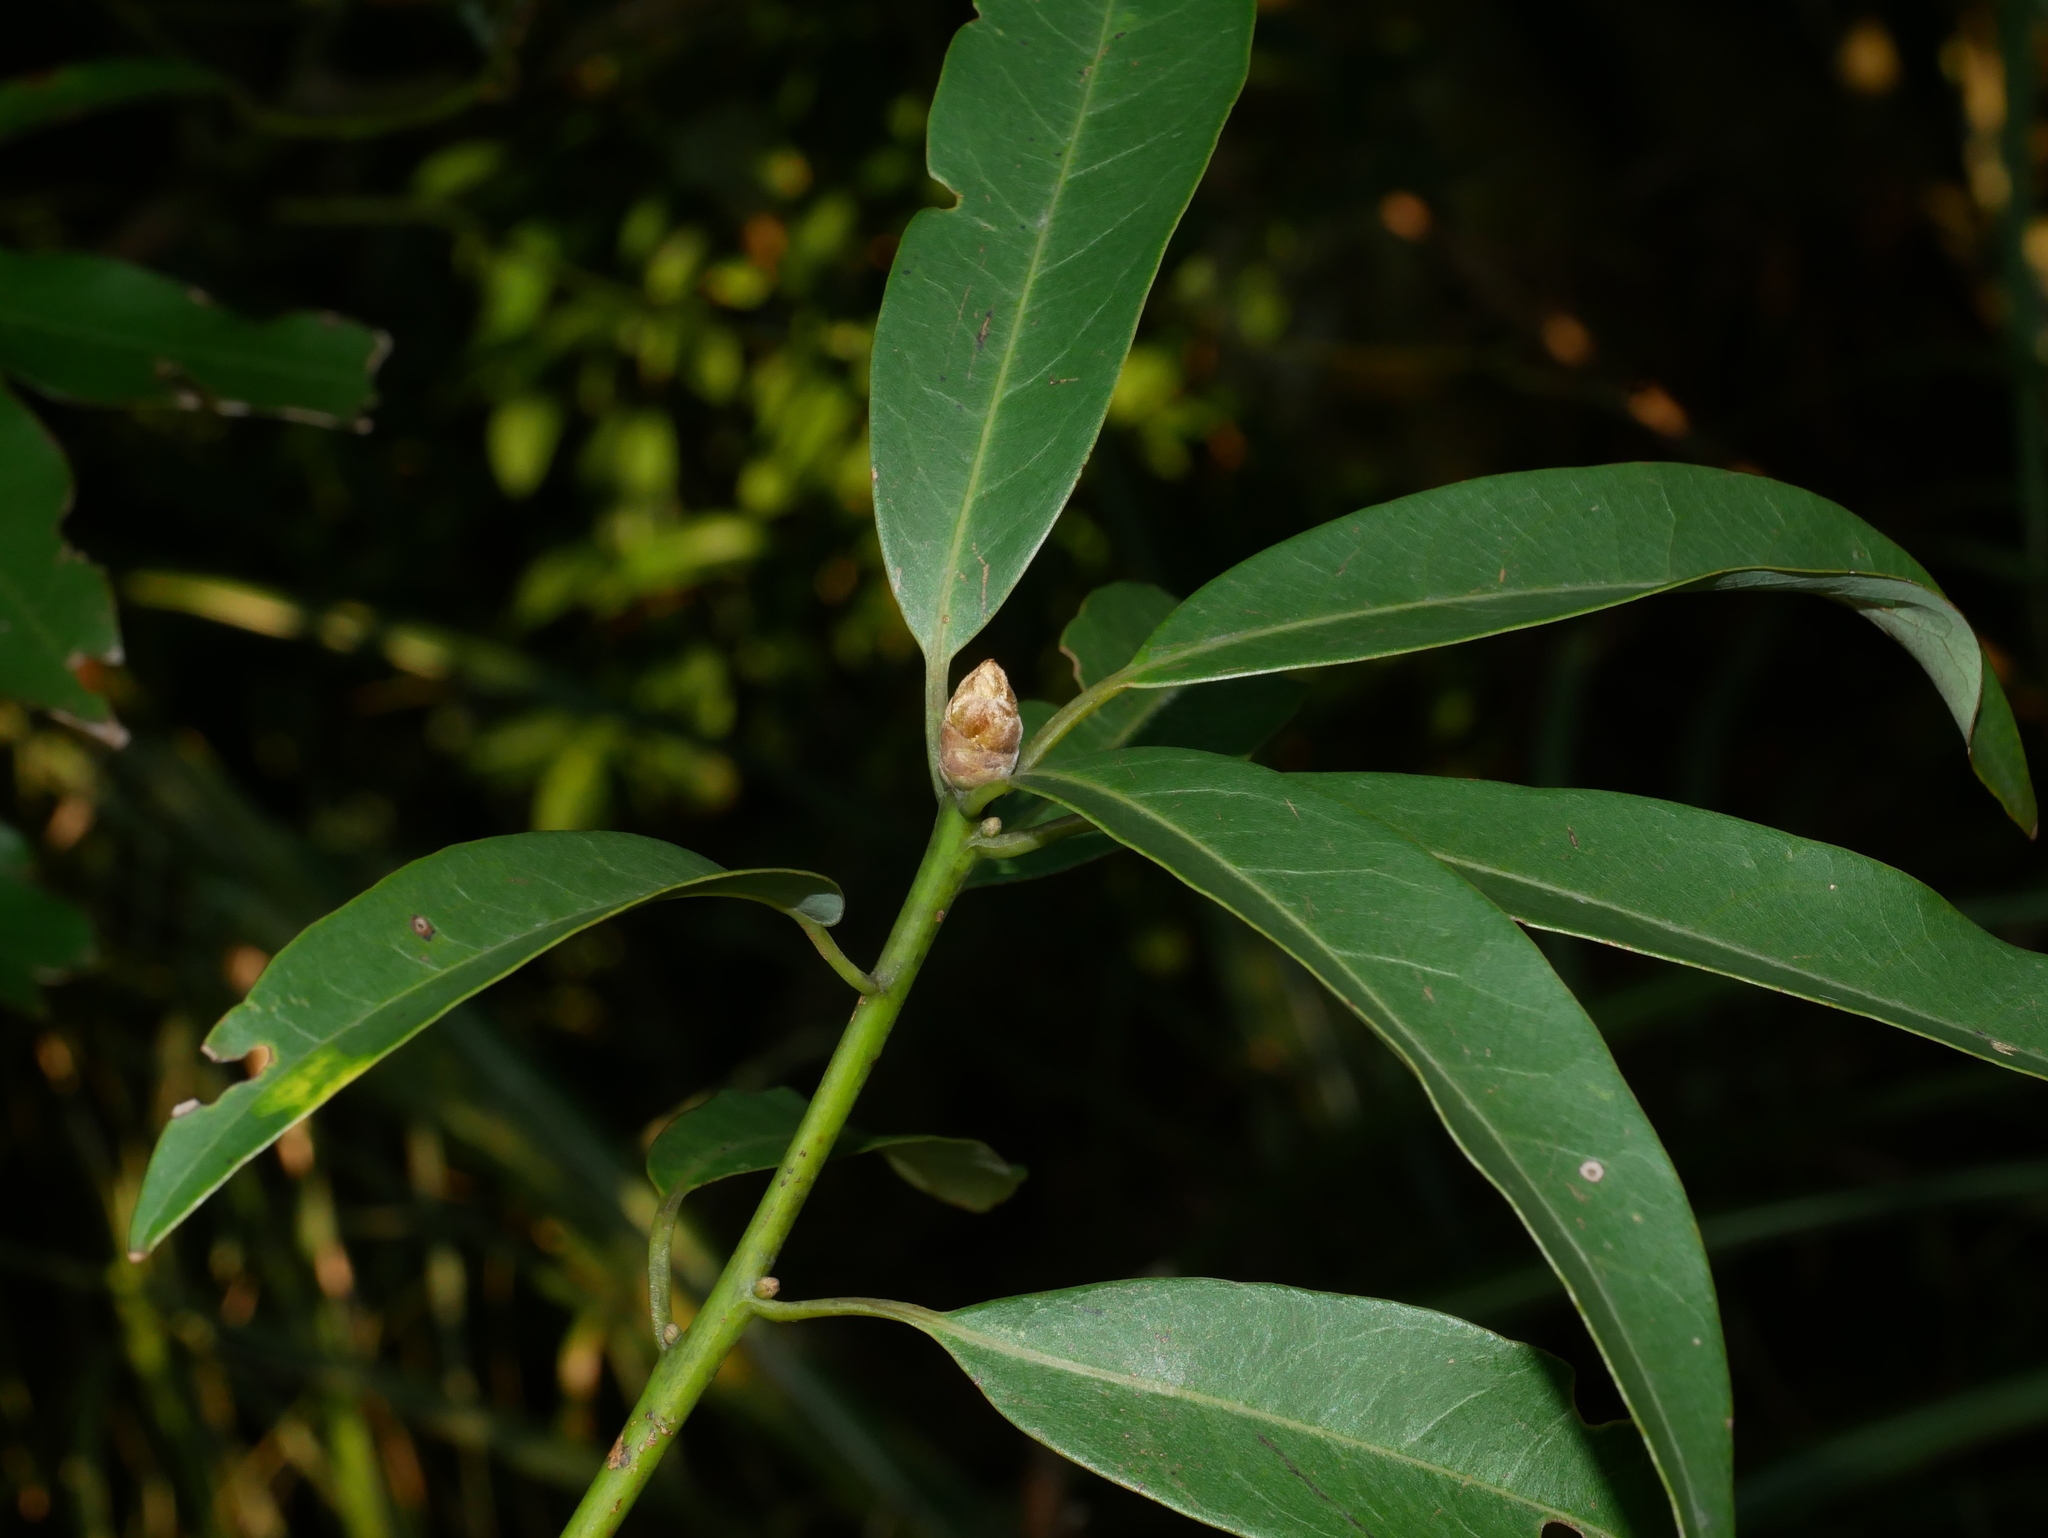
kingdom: Plantae
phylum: Tracheophyta
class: Magnoliopsida
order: Laurales
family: Lauraceae
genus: Machilus
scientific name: Machilus zuihoensis
